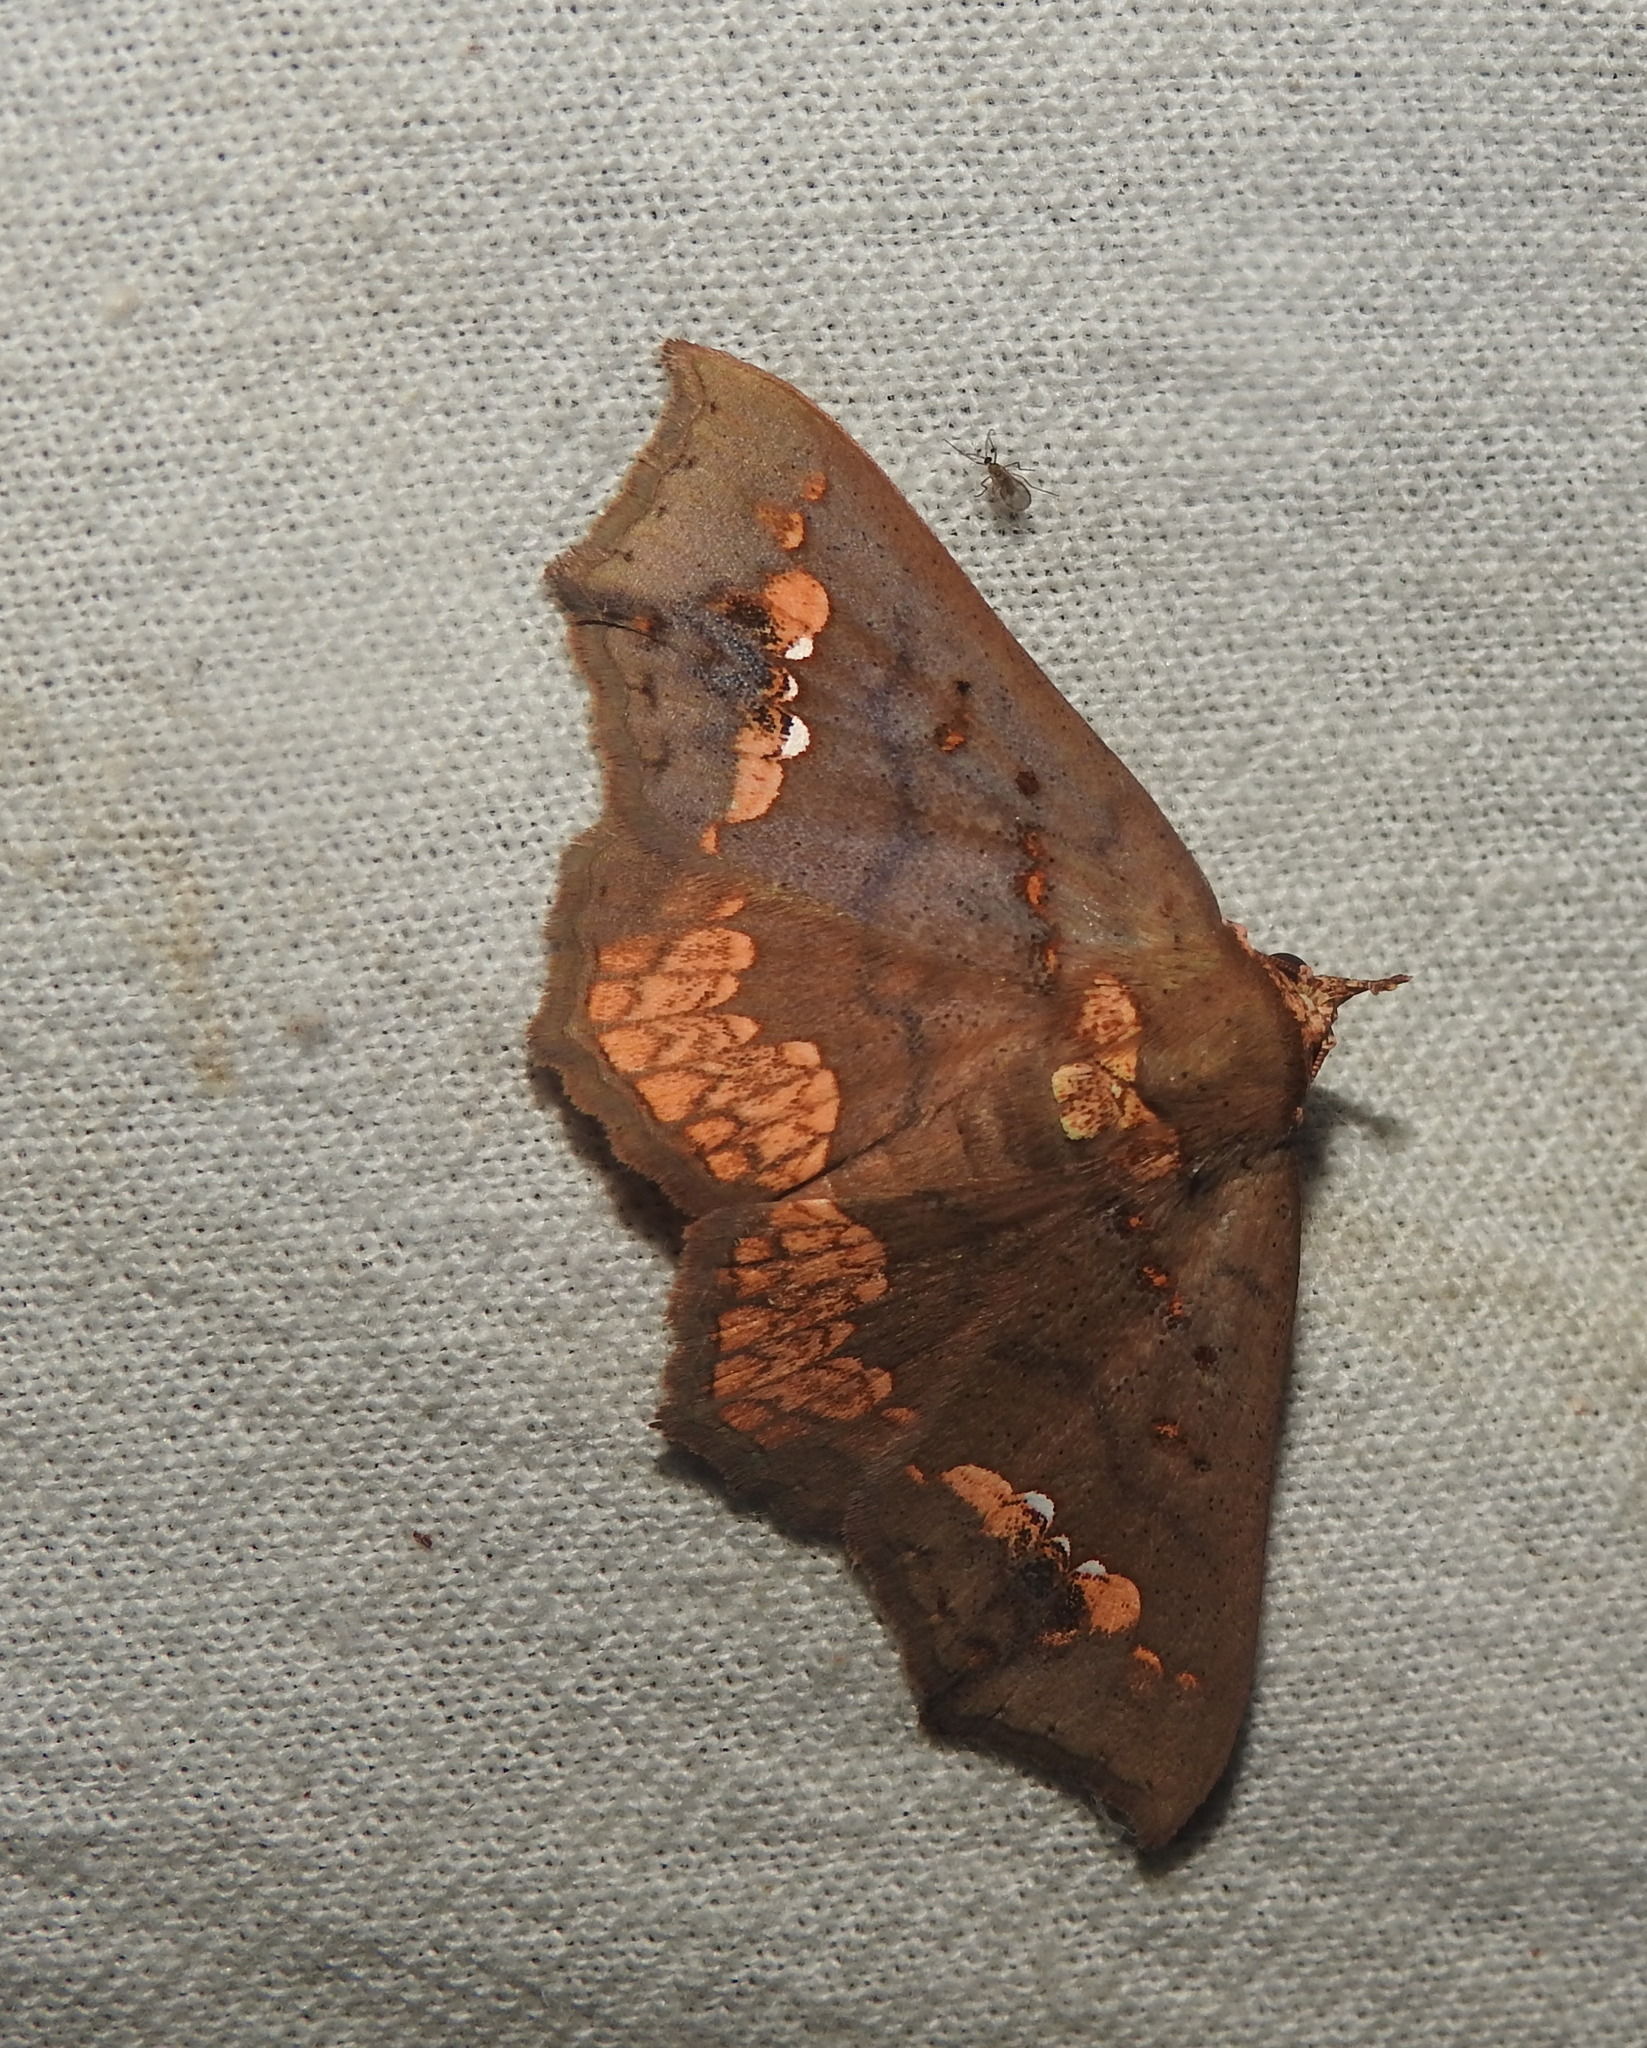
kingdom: Animalia
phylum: Arthropoda
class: Insecta
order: Lepidoptera
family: Erebidae
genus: Lopharthrum
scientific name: Lopharthrum comprimens
